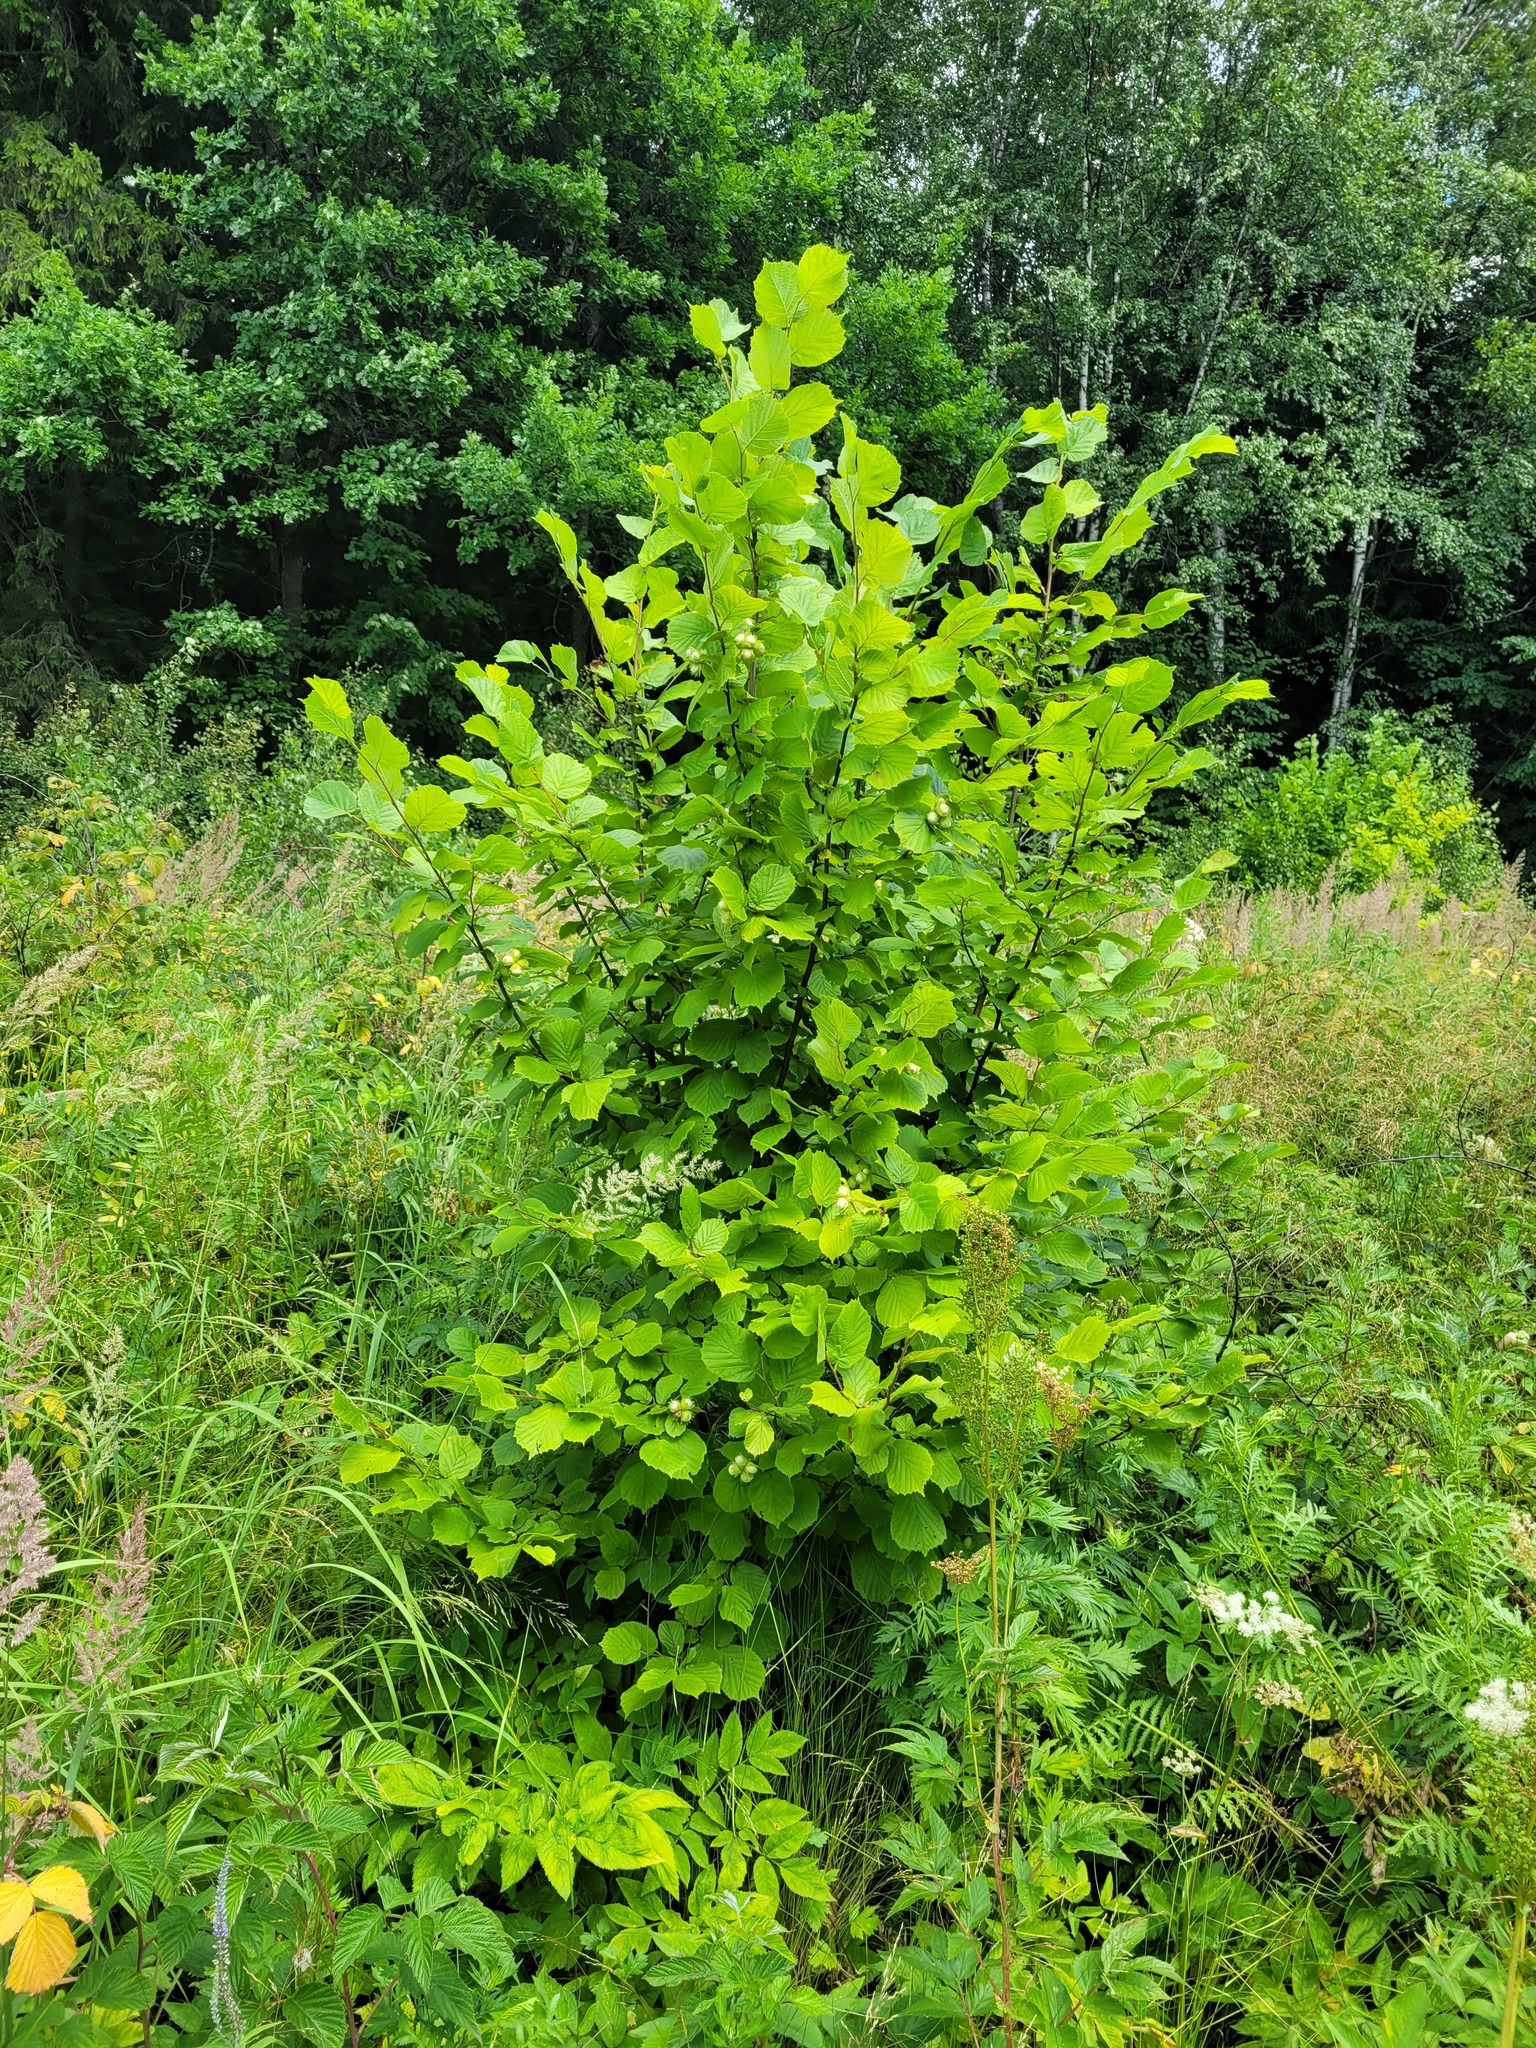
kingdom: Plantae
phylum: Tracheophyta
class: Magnoliopsida
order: Fagales
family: Betulaceae
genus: Corylus
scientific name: Corylus avellana
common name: European hazel
